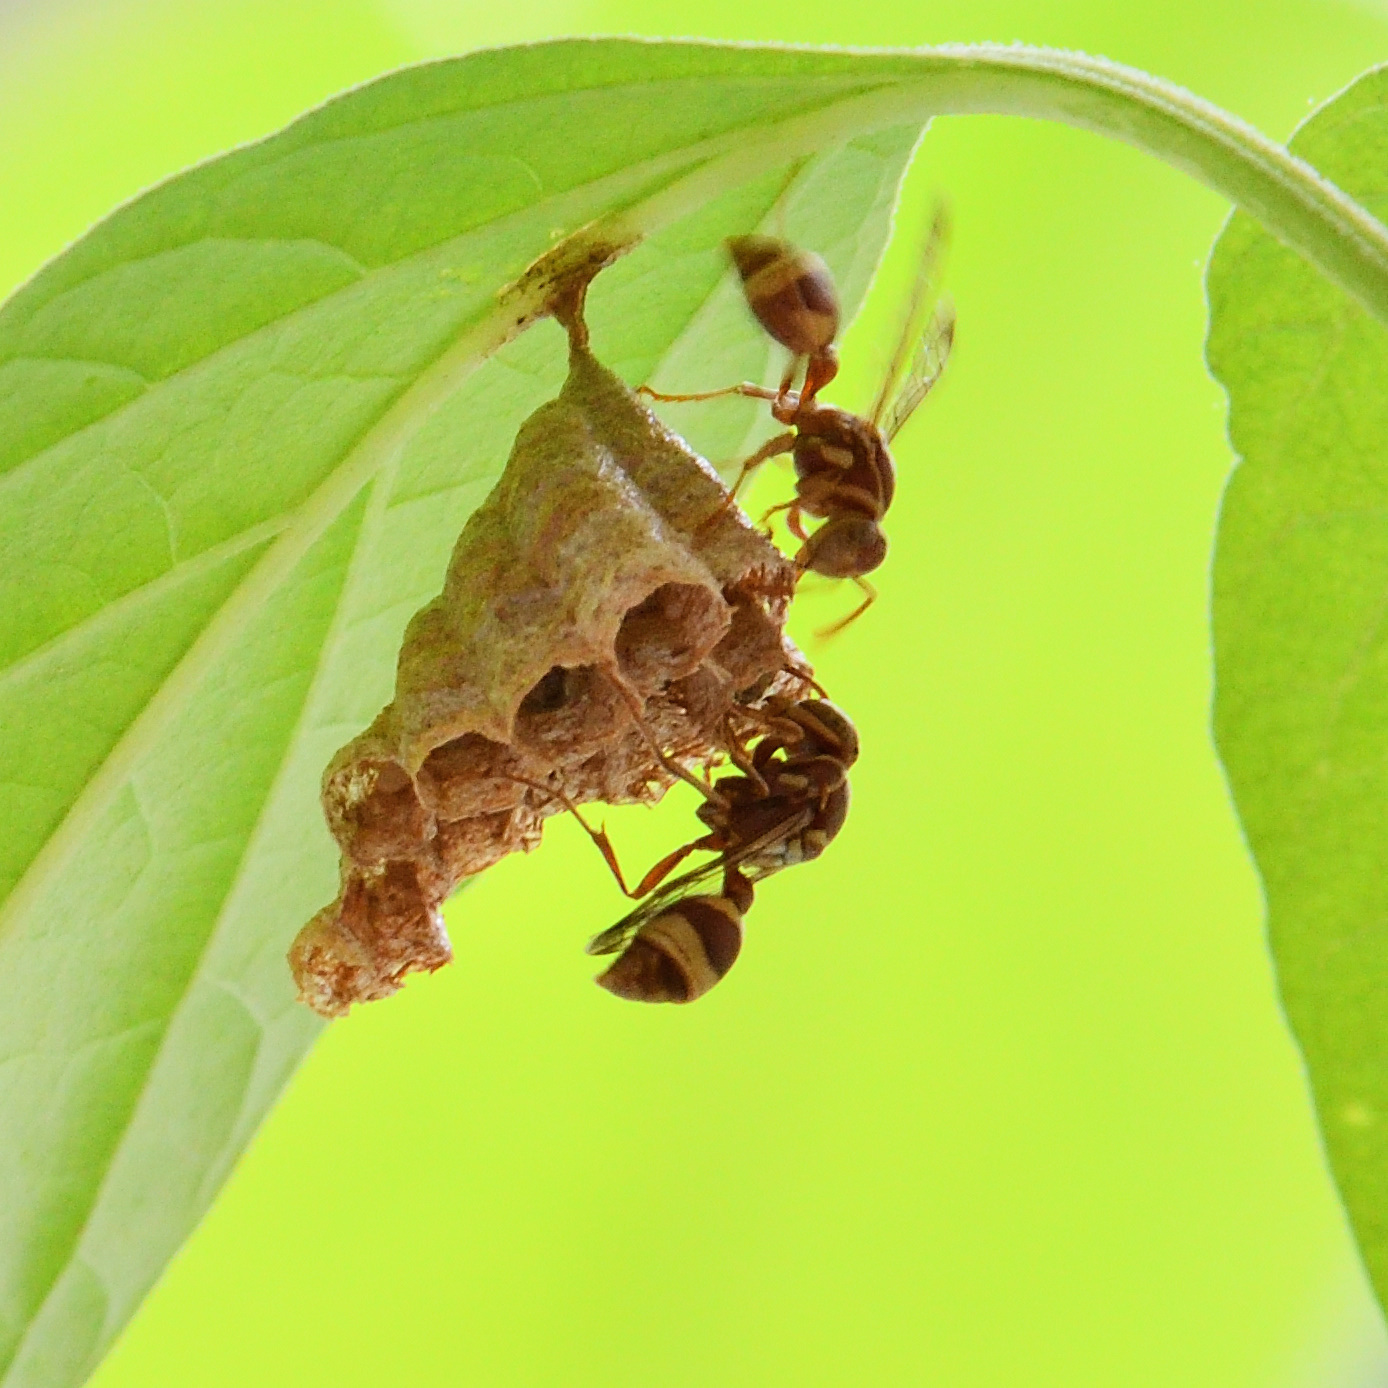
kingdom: Animalia
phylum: Arthropoda
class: Insecta
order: Hymenoptera
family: Vespidae
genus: Ropalidia
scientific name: Ropalidia variegata
